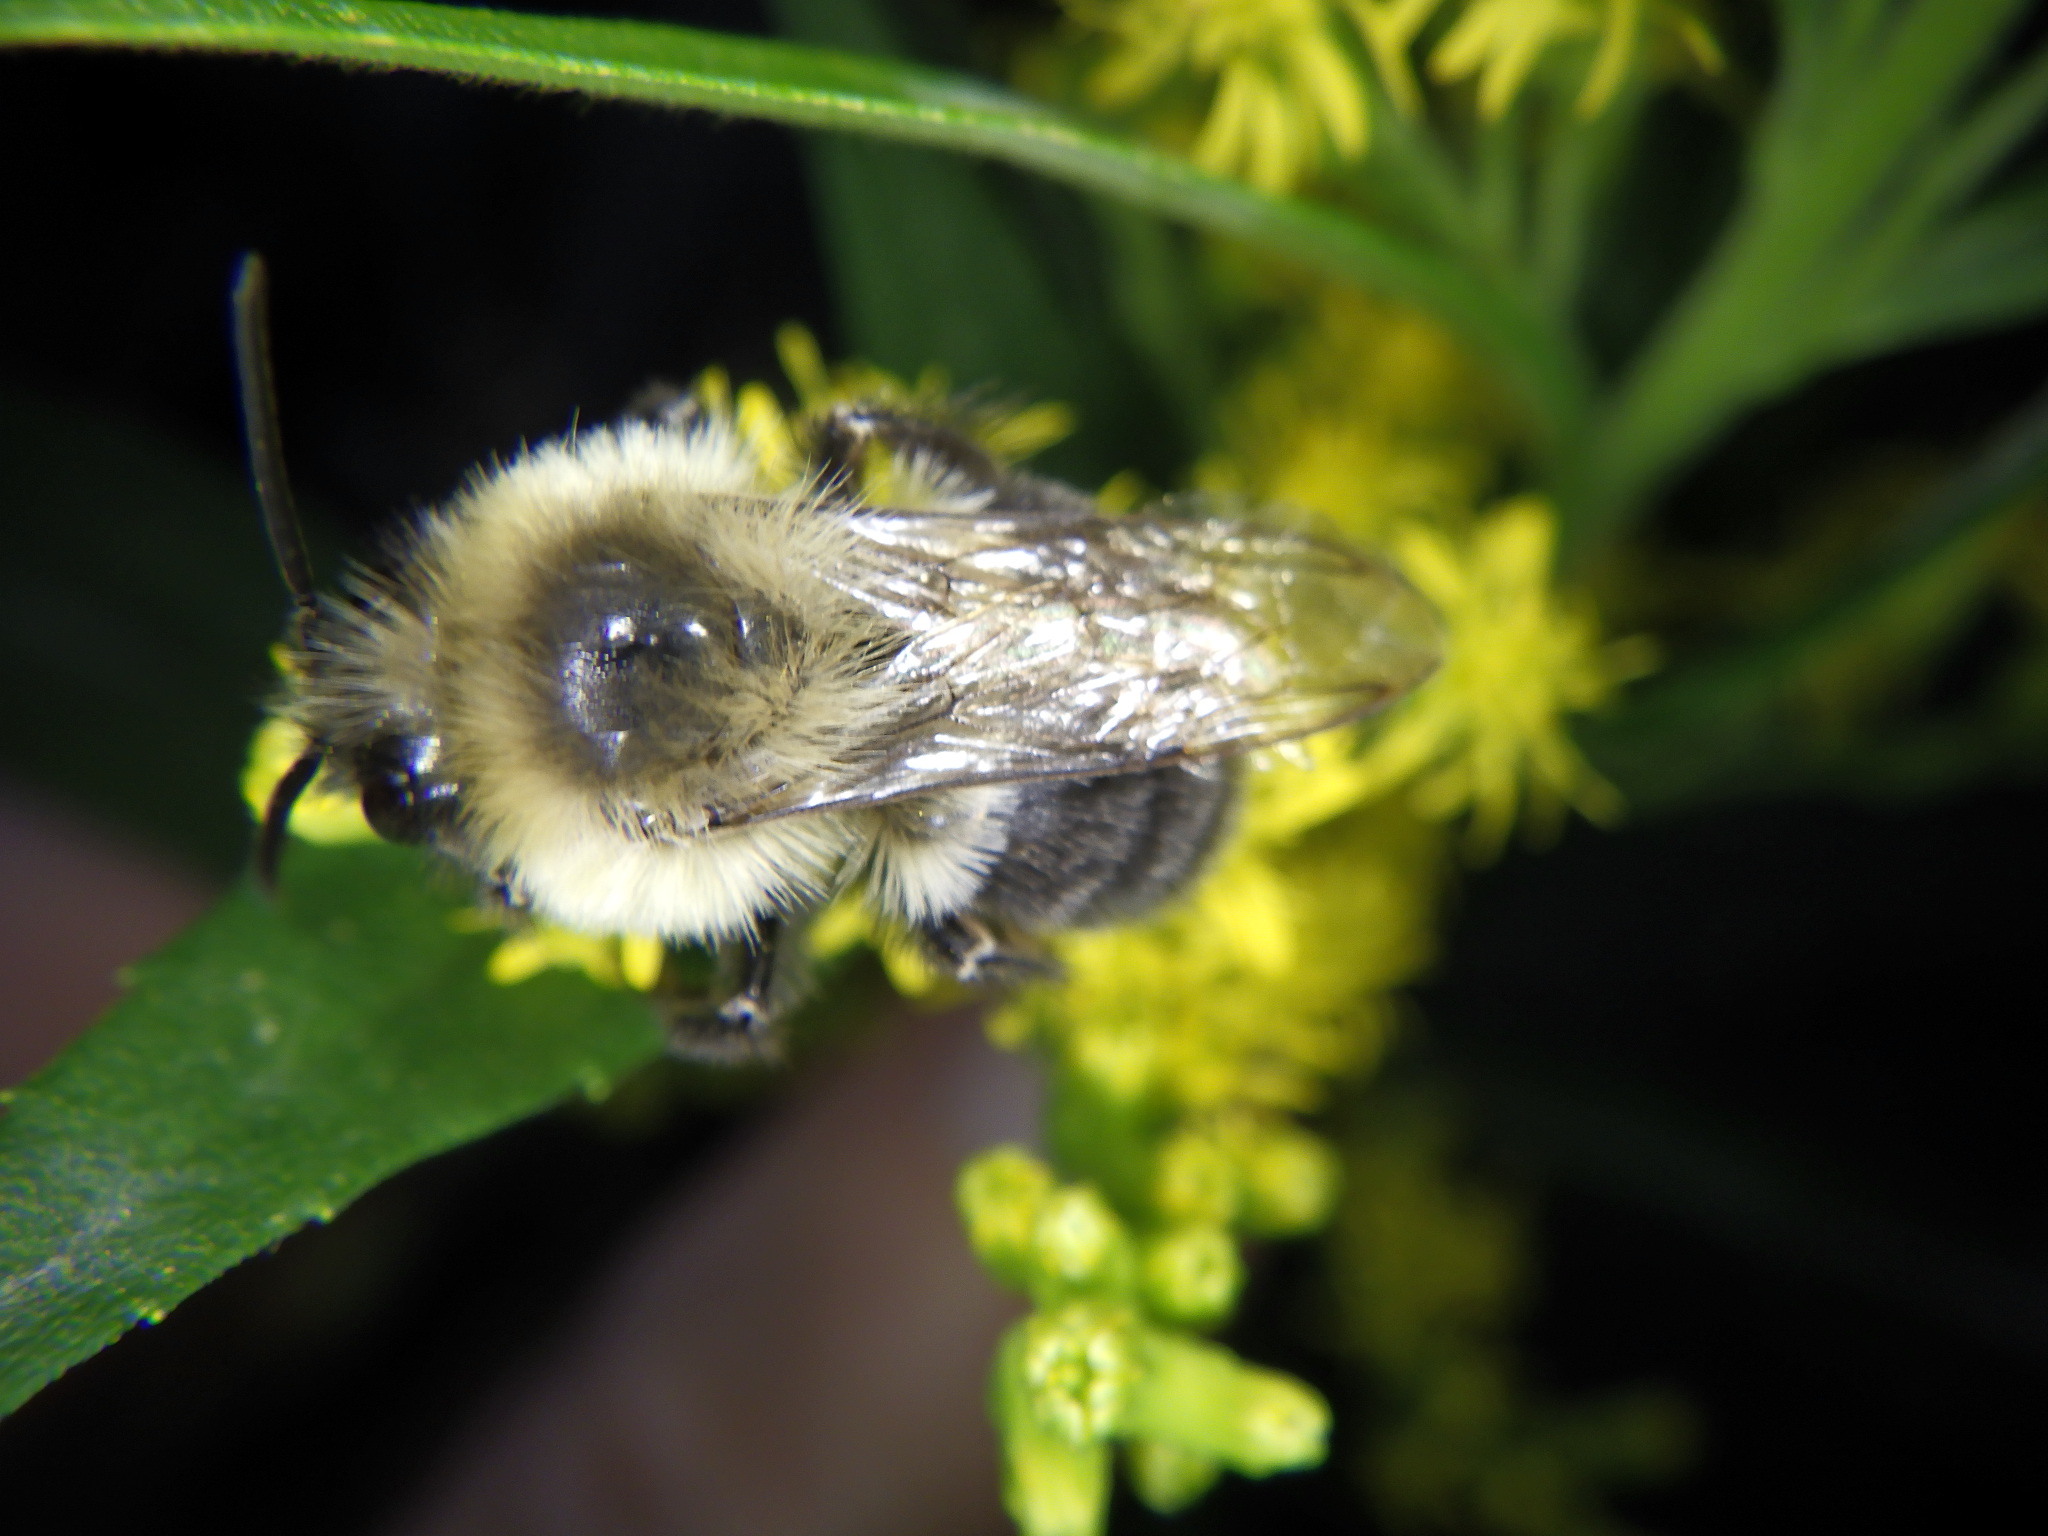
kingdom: Animalia
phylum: Arthropoda
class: Insecta
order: Hymenoptera
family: Apidae
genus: Bombus
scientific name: Bombus impatiens
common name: Common eastern bumble bee
